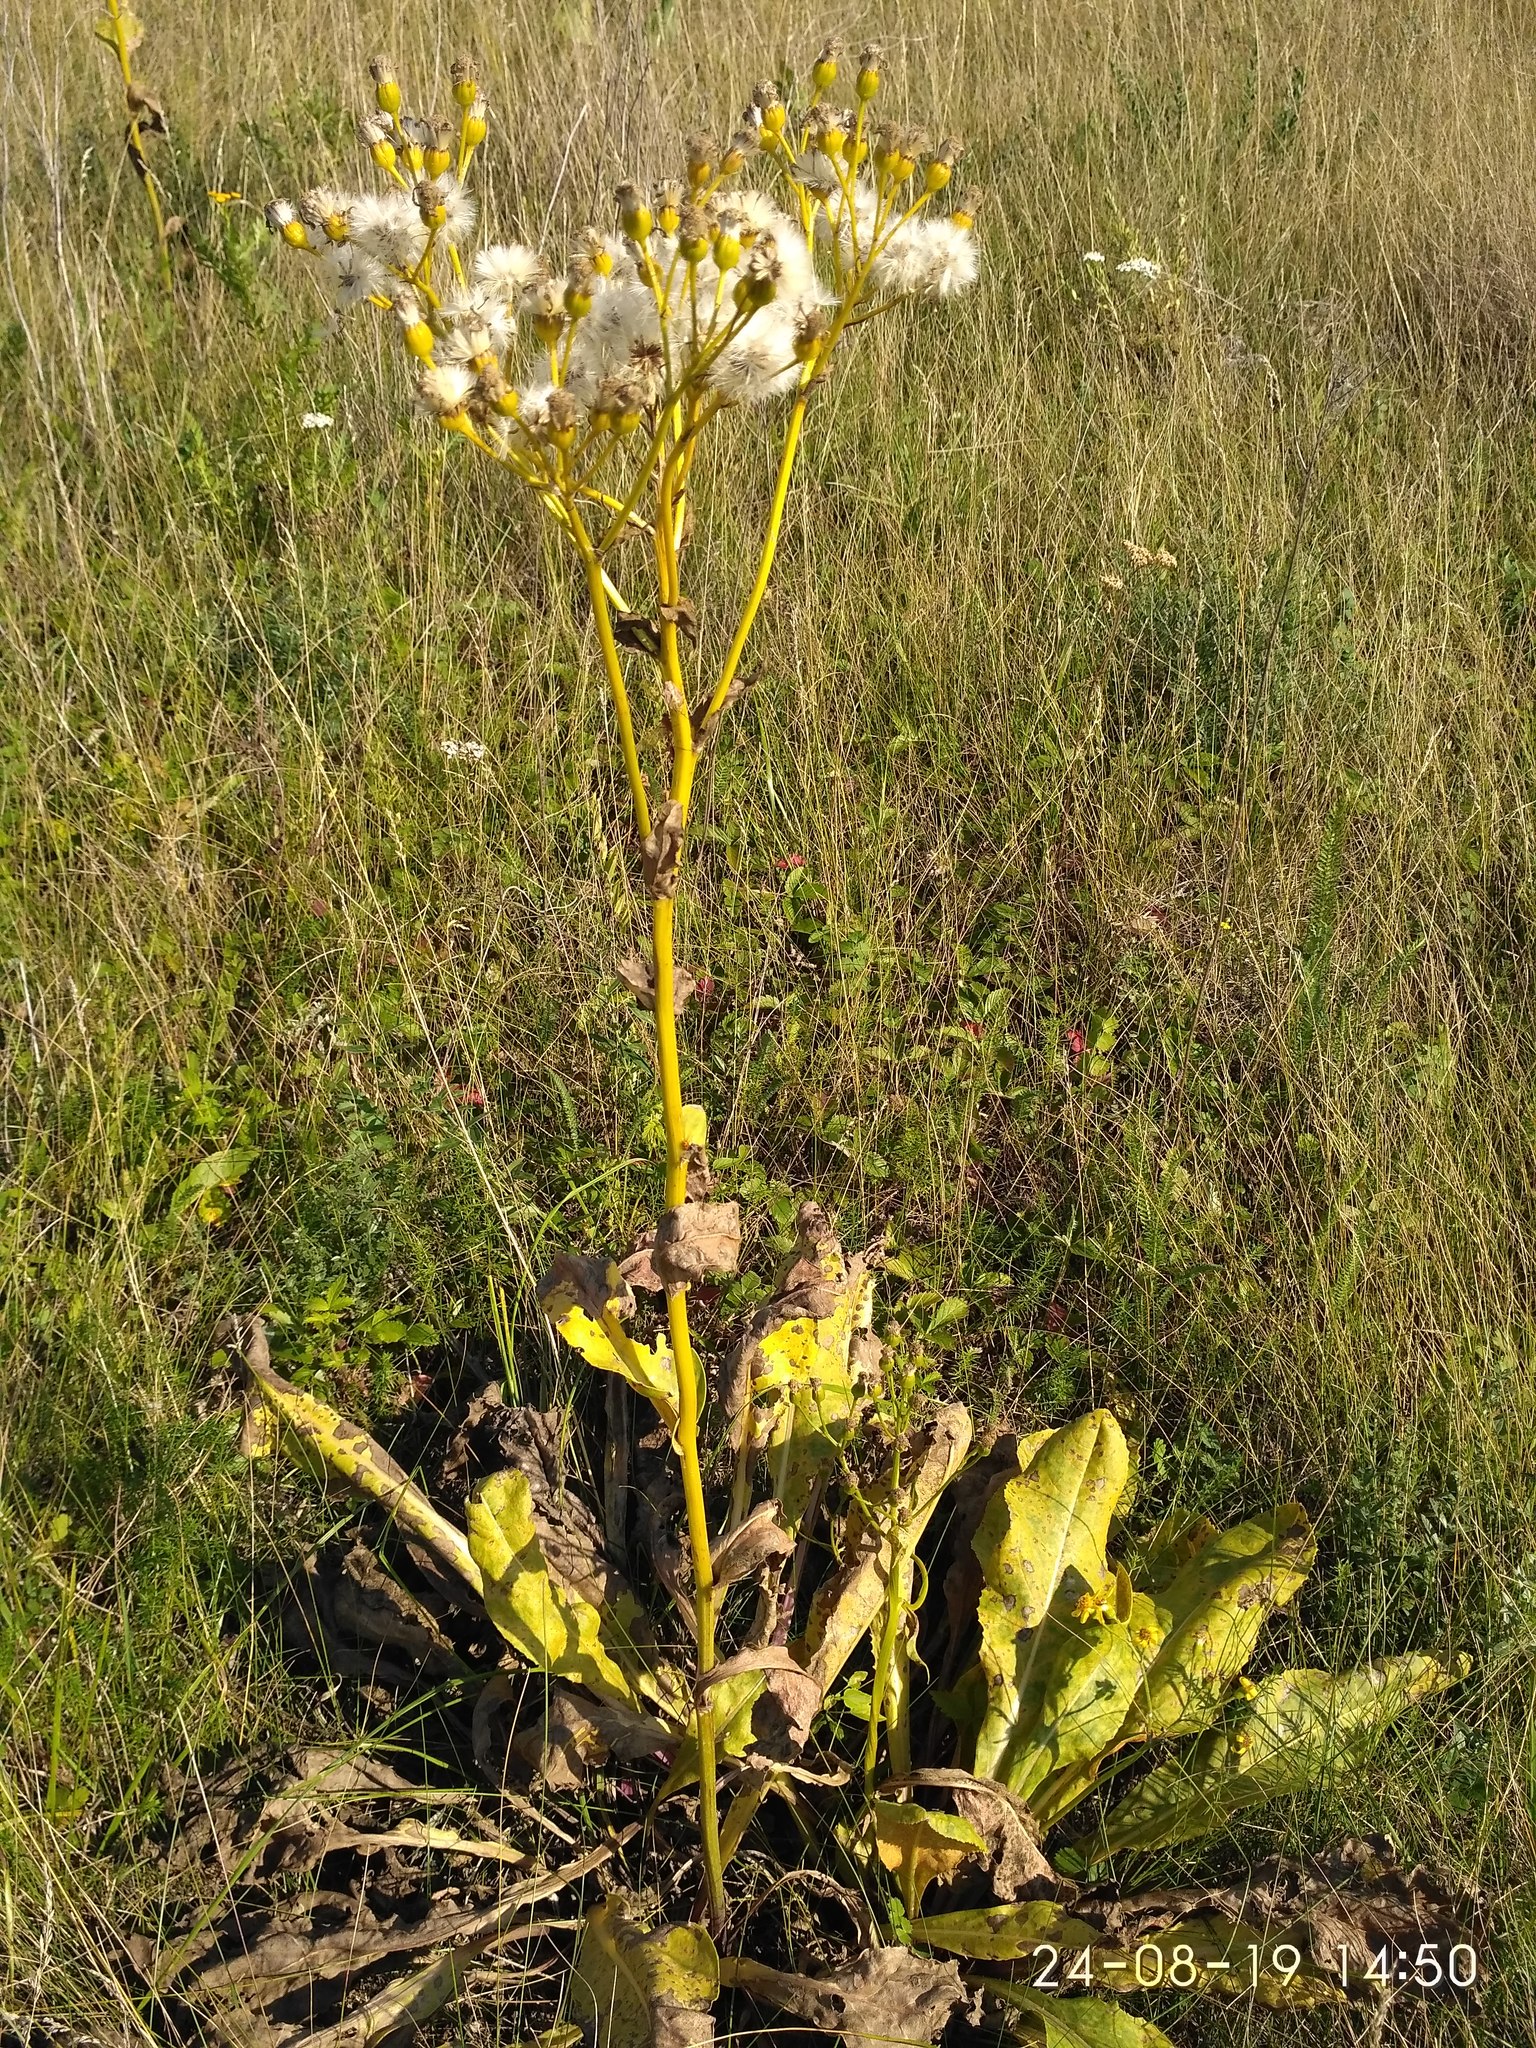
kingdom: Plantae
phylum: Tracheophyta
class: Magnoliopsida
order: Asterales
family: Asteraceae
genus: Senecio
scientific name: Senecio doria
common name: Golden ragwort
